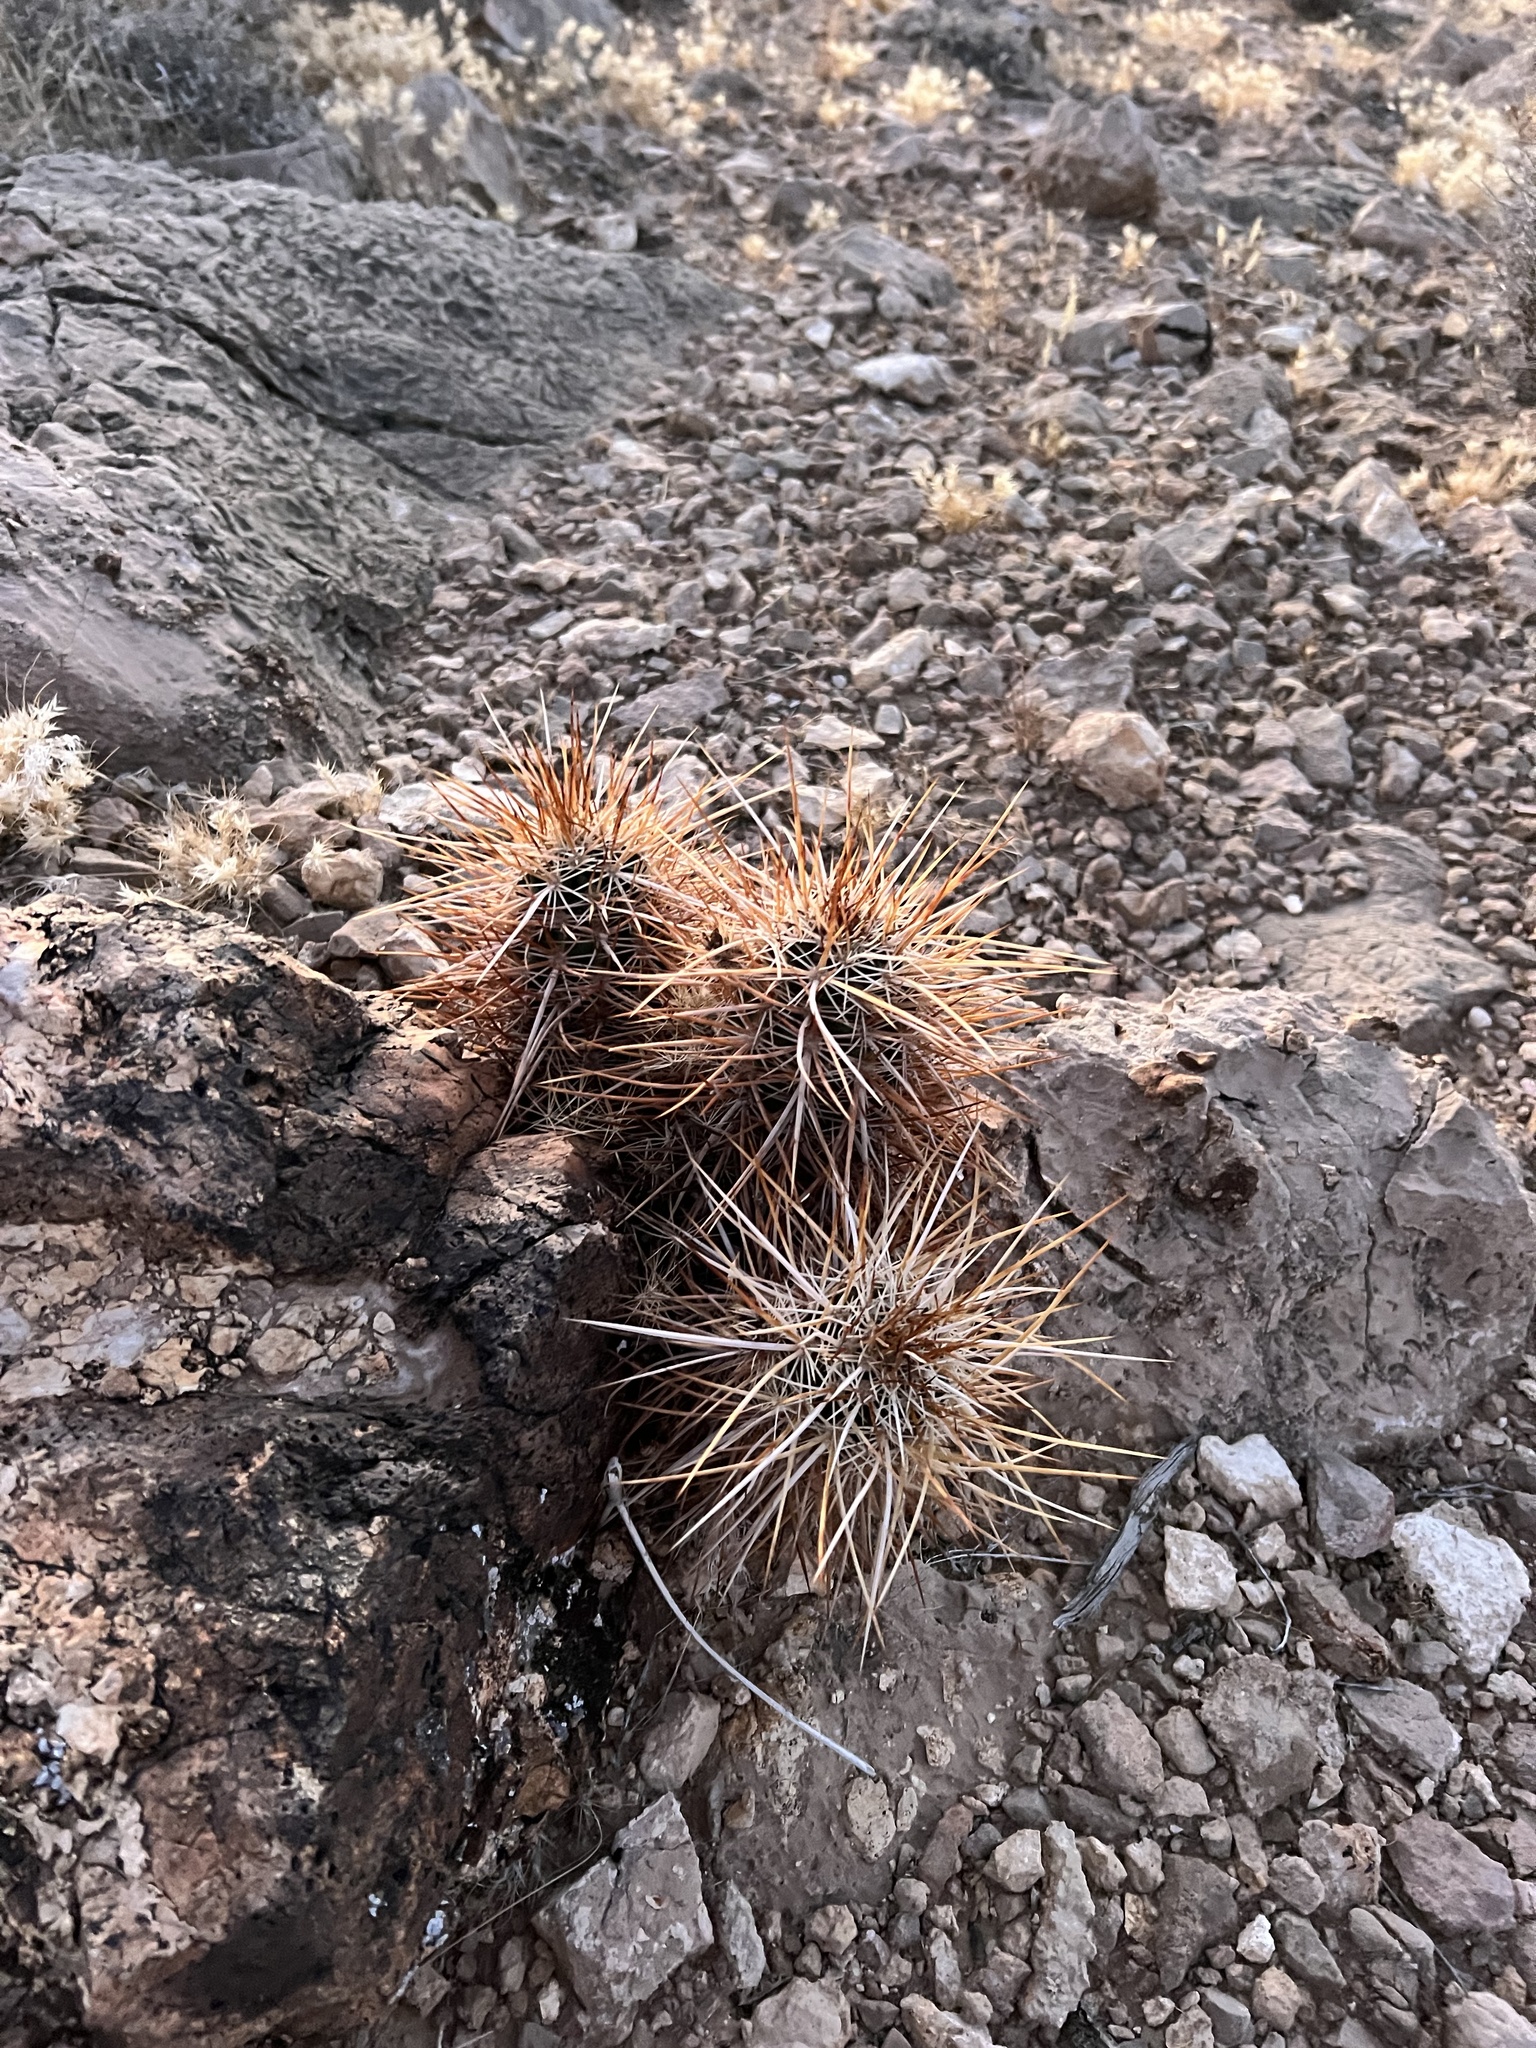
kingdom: Plantae
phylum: Tracheophyta
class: Magnoliopsida
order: Caryophyllales
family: Cactaceae
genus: Echinocereus
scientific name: Echinocereus engelmannii
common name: Engelmann's hedgehog cactus
